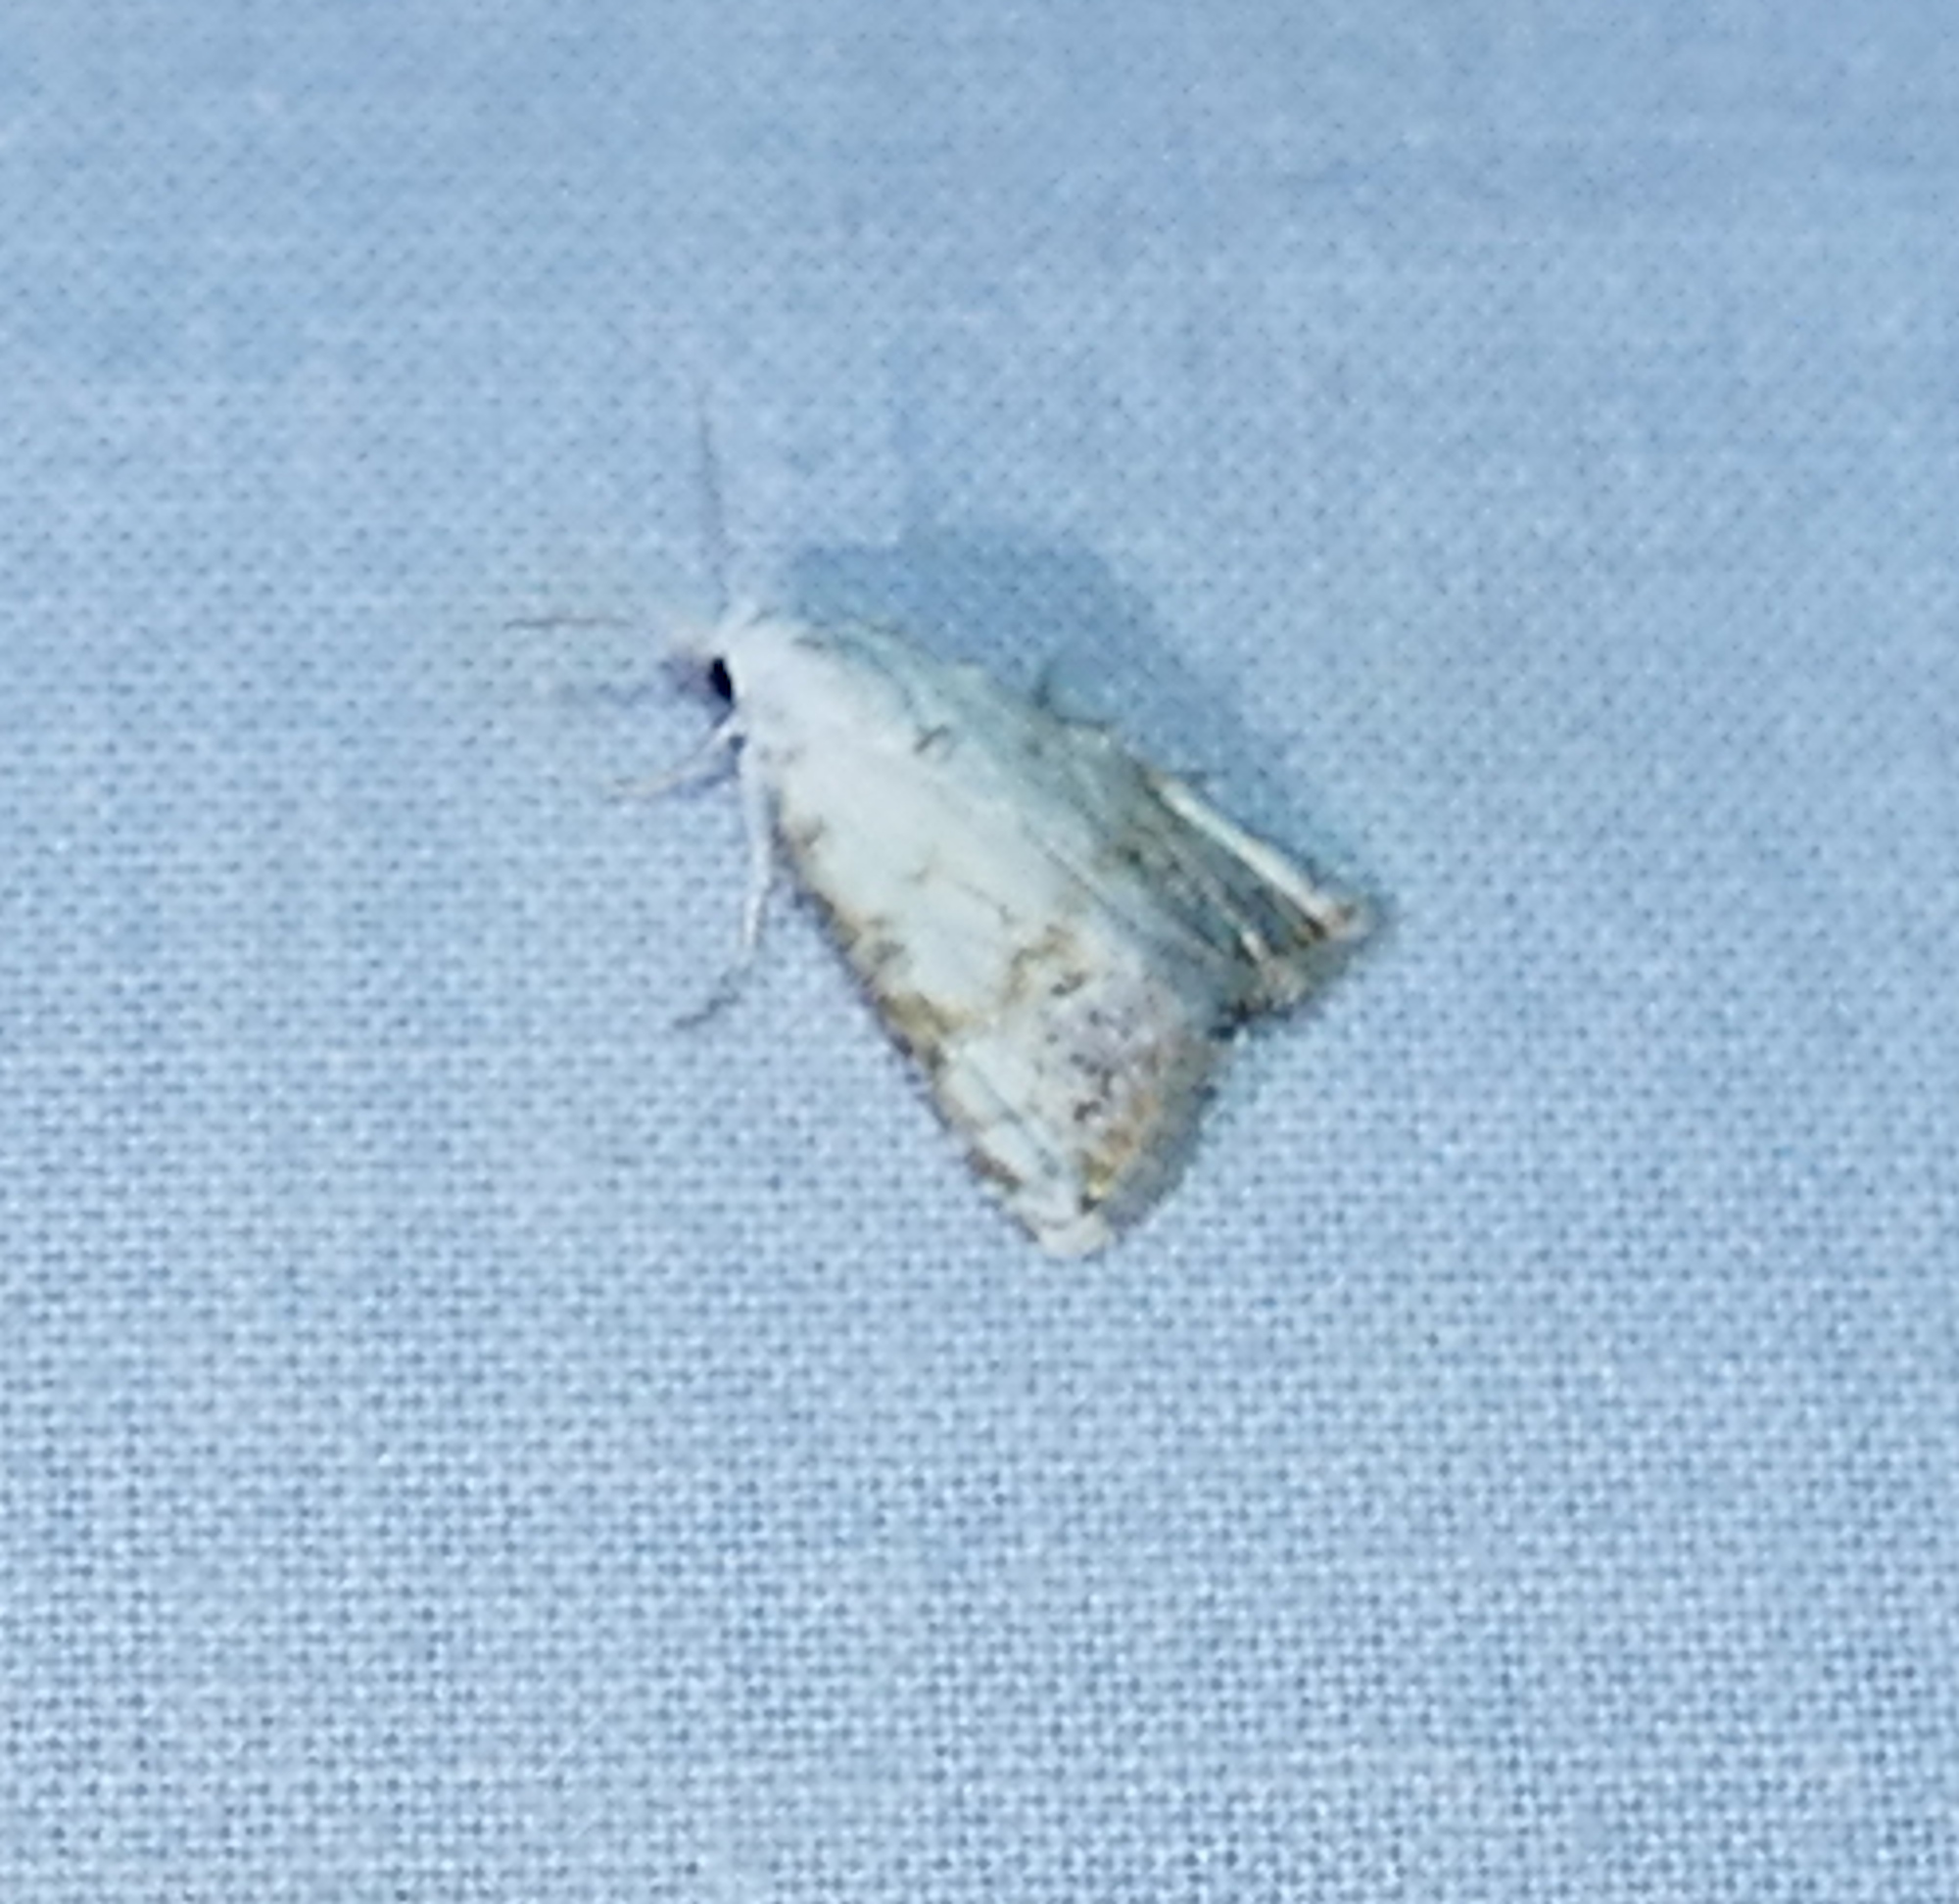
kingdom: Animalia
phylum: Arthropoda
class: Insecta
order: Lepidoptera
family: Nolidae
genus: Nola
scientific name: Nola cereella
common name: Sorghum webworm moth
